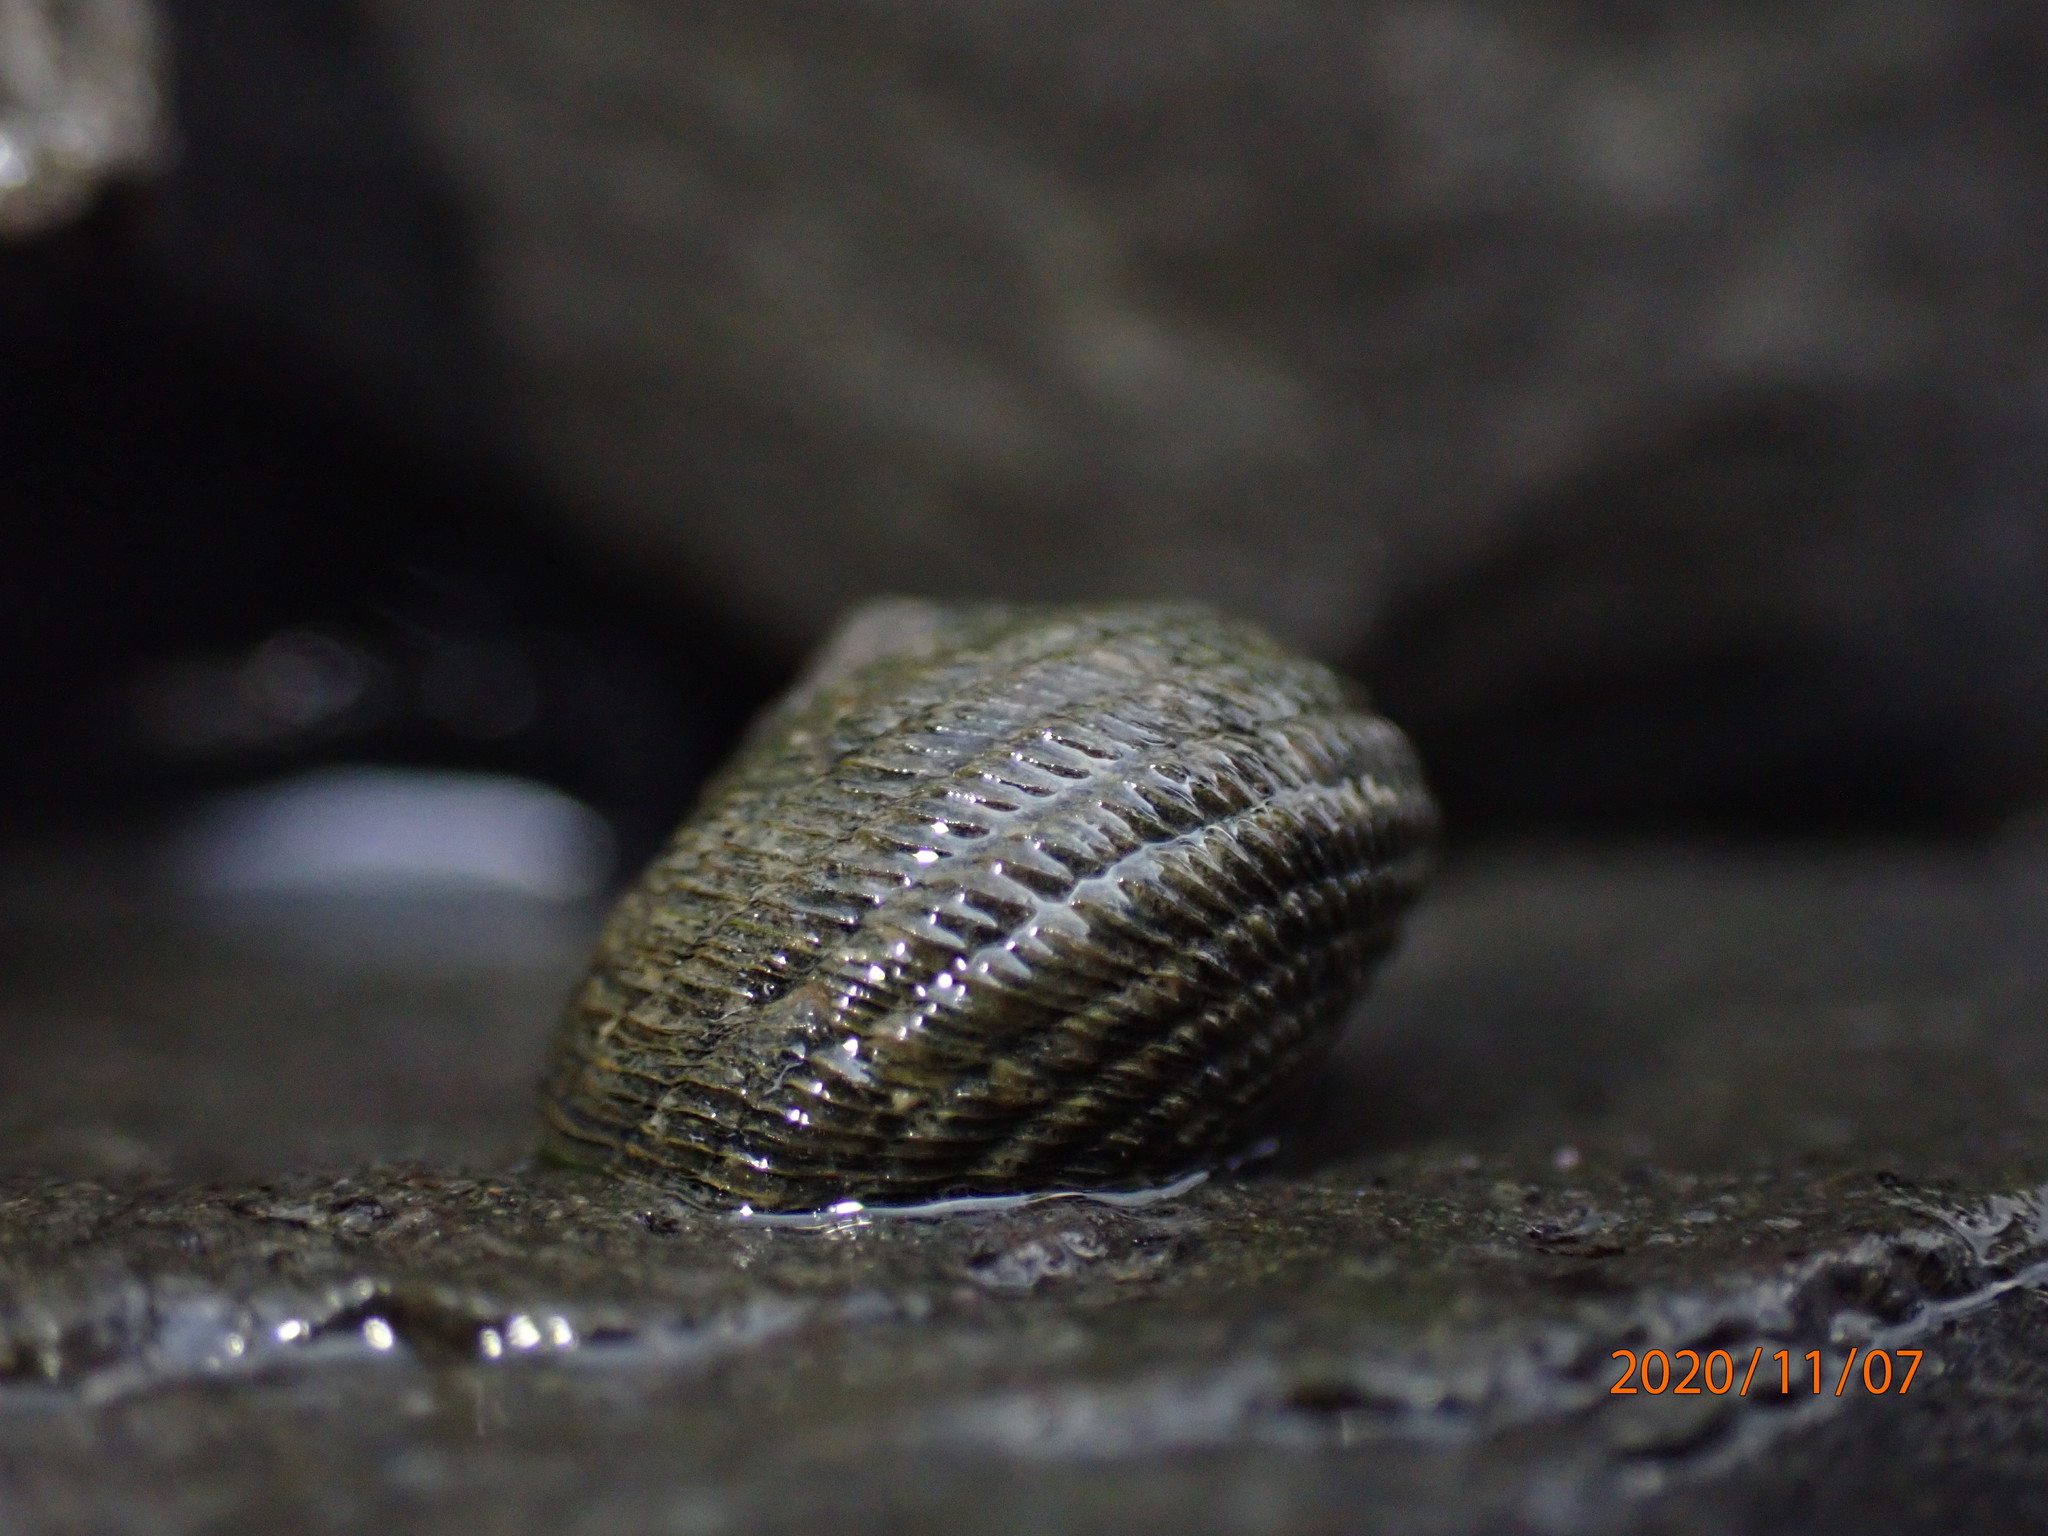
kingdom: Animalia
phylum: Mollusca
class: Gastropoda
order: Trochida
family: Trochidae
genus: Diloma
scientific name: Diloma aethiops
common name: Scorched monodont
